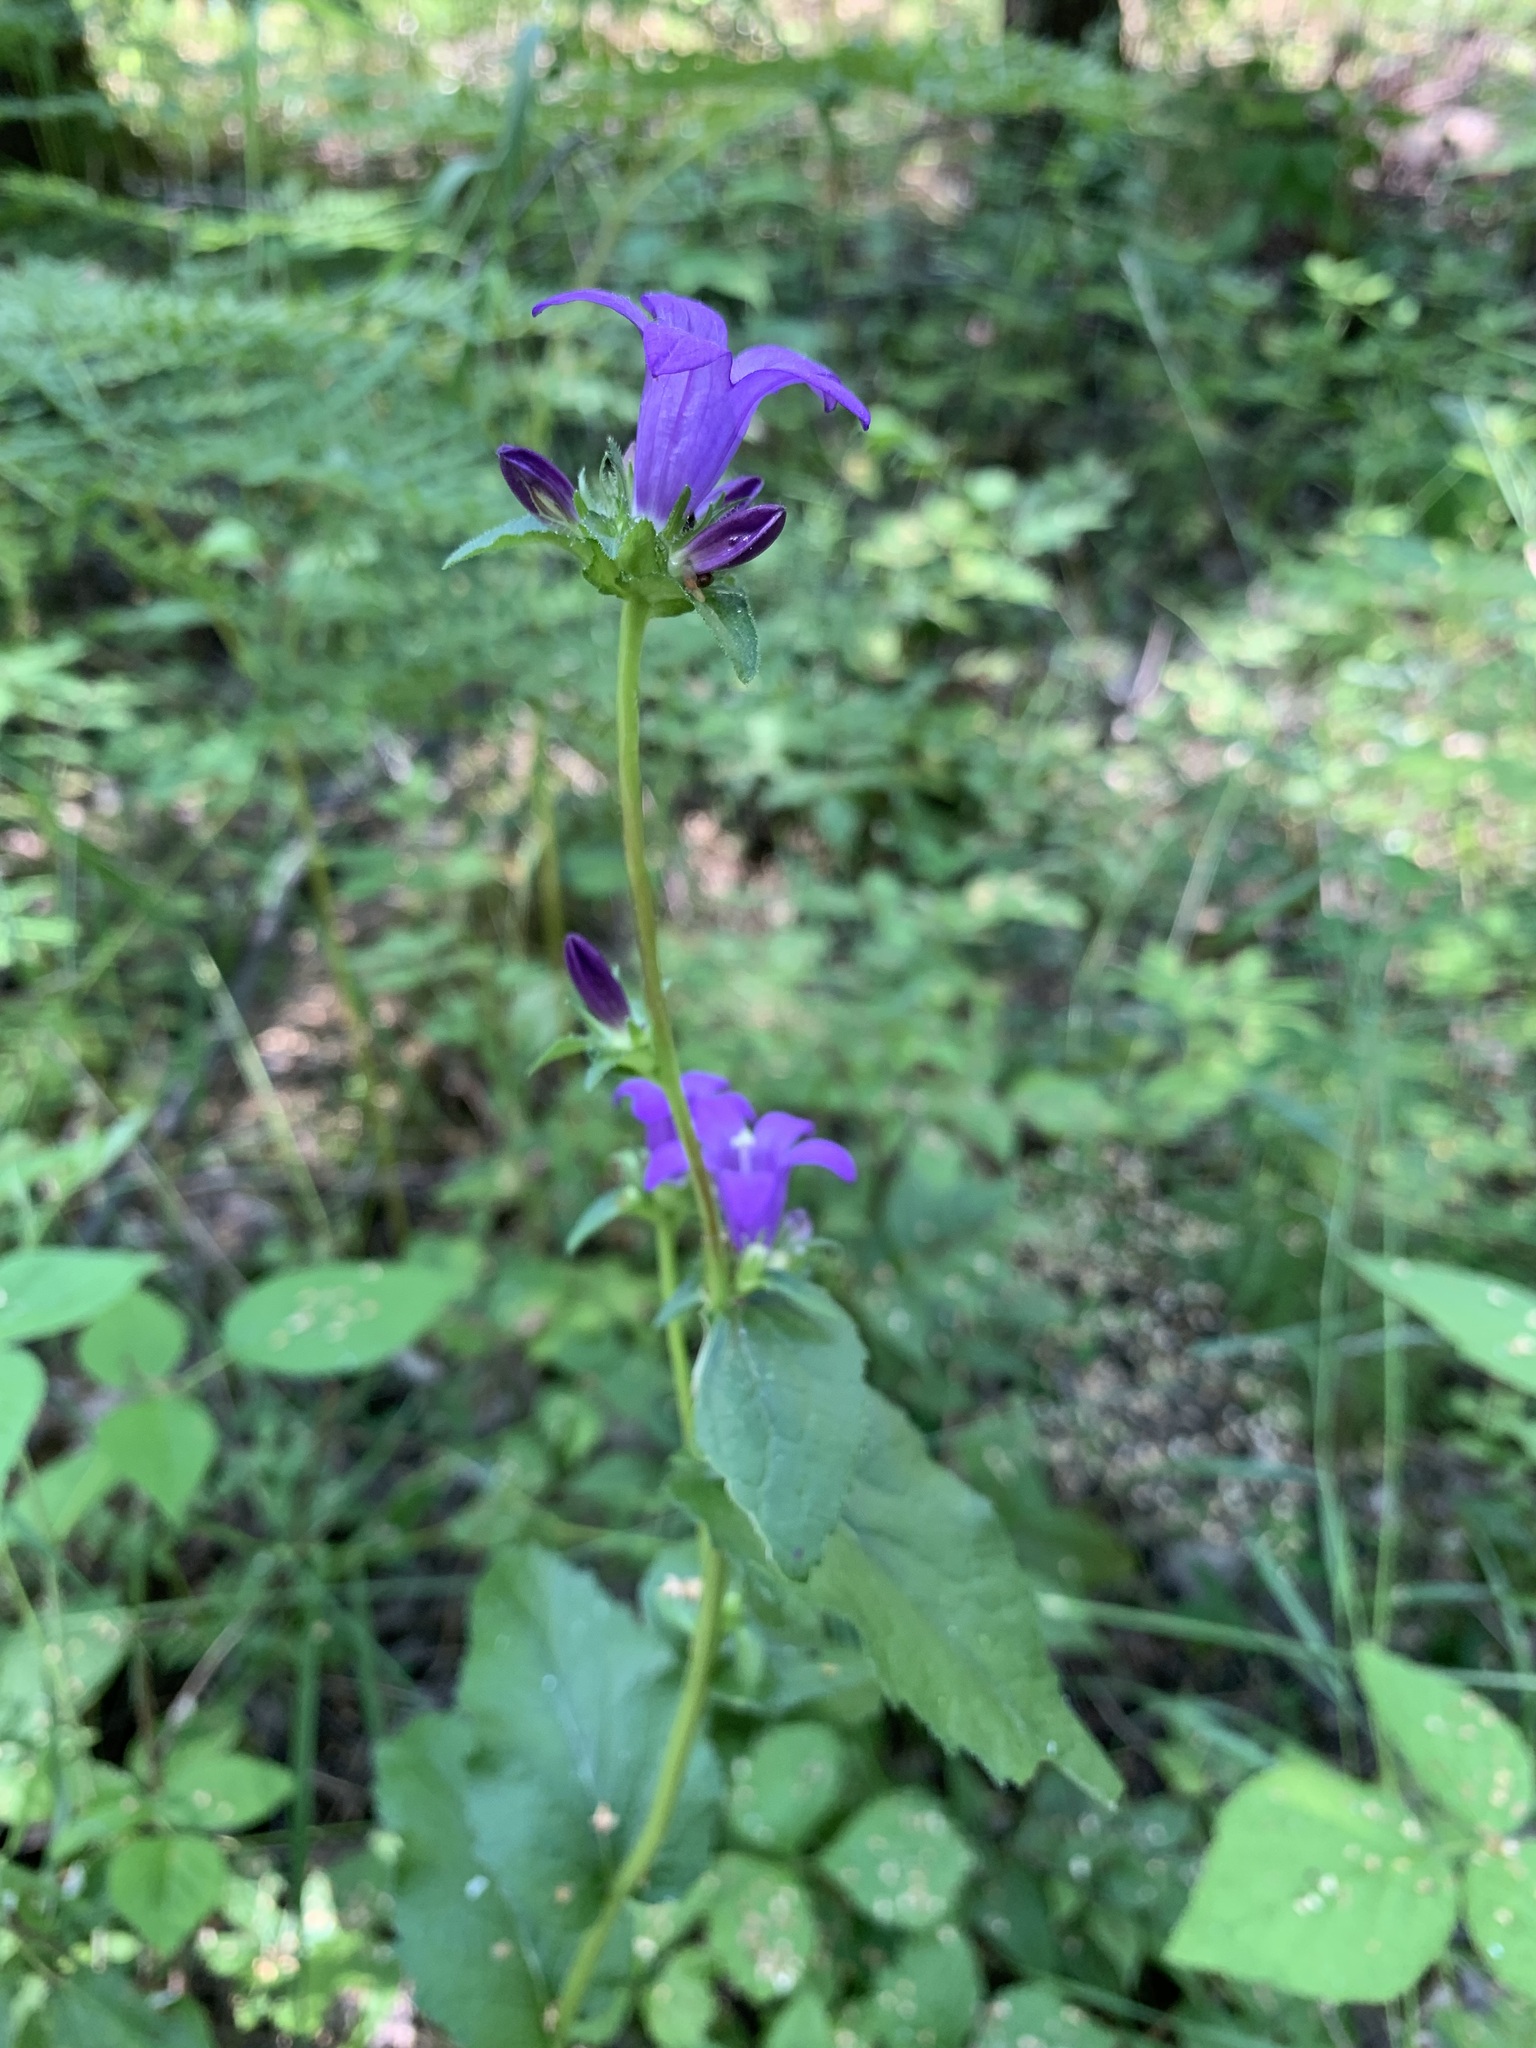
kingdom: Plantae
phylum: Tracheophyta
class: Magnoliopsida
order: Asterales
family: Campanulaceae
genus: Campanula
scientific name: Campanula glomerata
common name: Clustered bellflower
